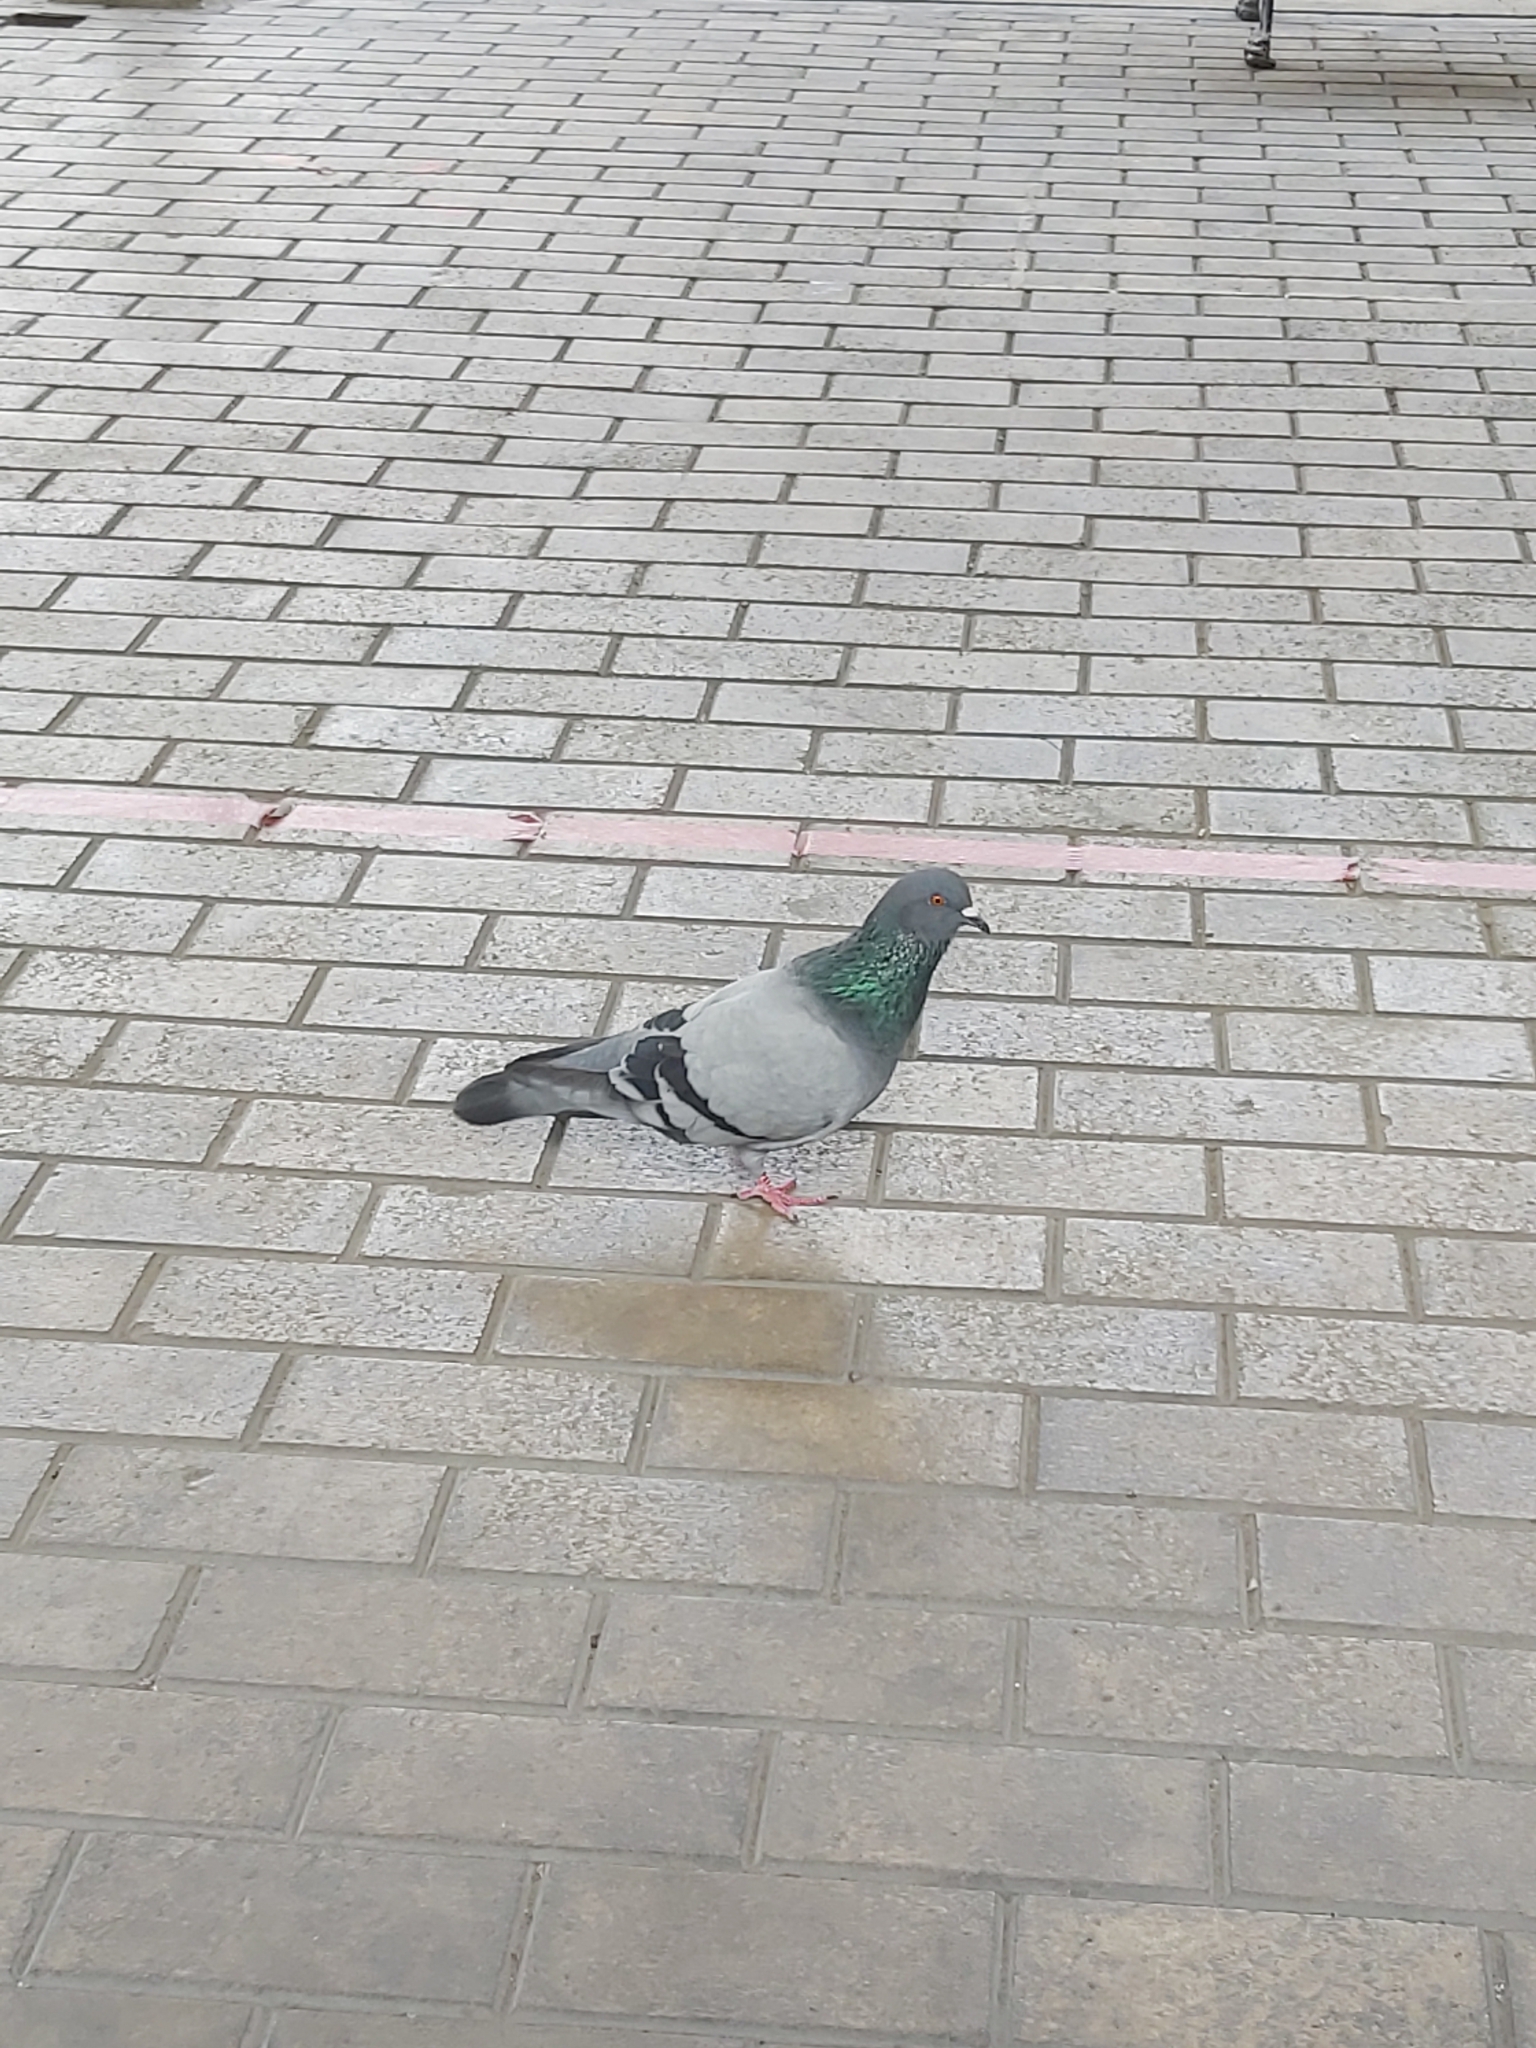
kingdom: Animalia
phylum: Chordata
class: Aves
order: Columbiformes
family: Columbidae
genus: Columba
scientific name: Columba livia
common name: Rock pigeon
